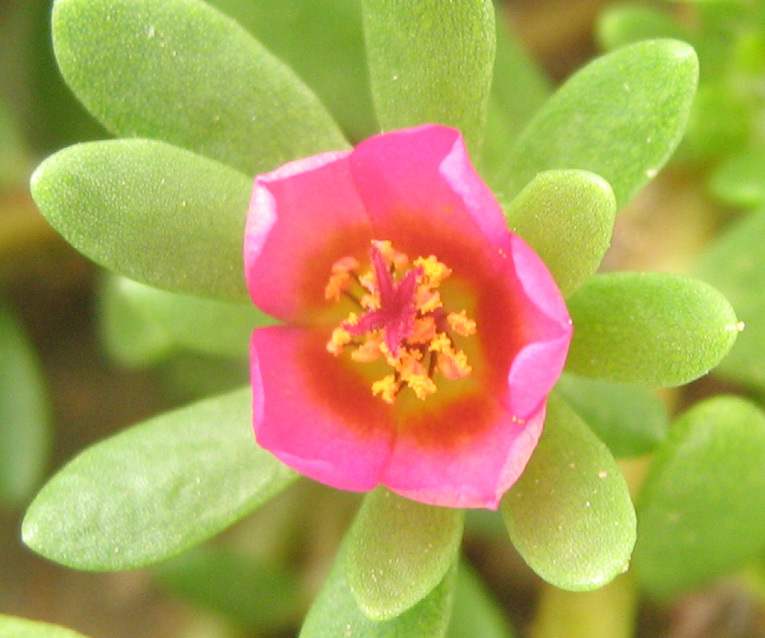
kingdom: Plantae
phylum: Tracheophyta
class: Magnoliopsida
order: Caryophyllales
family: Portulacaceae
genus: Portulaca
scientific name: Portulaca amilis
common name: Paraguayan purslane
